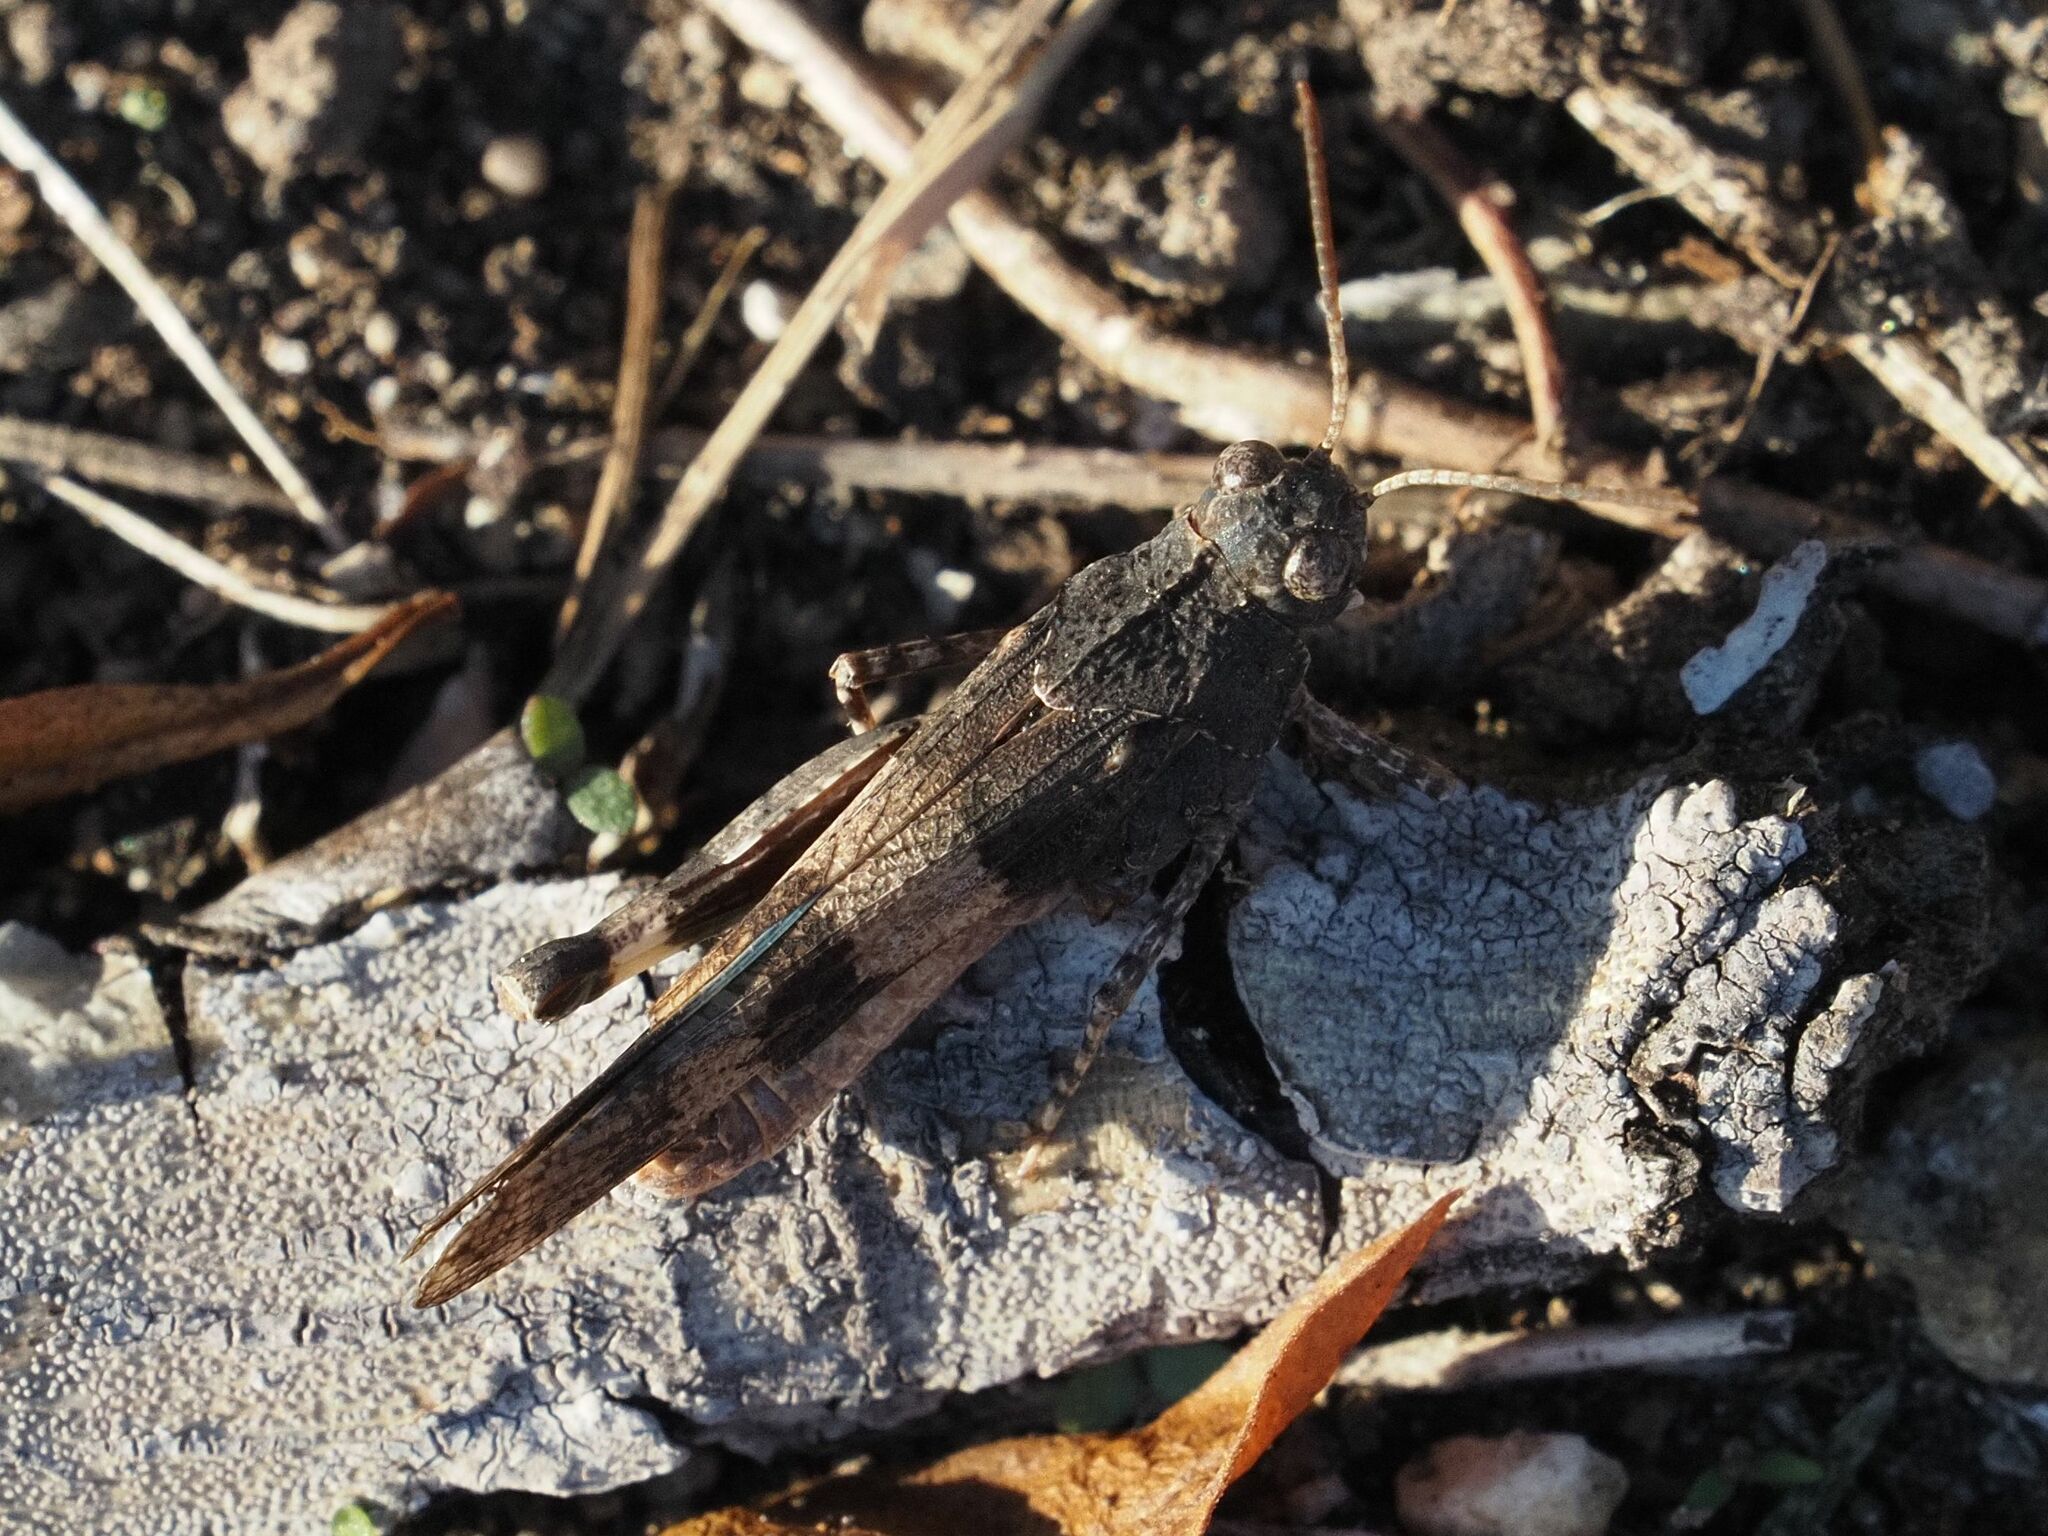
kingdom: Animalia
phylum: Arthropoda
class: Insecta
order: Orthoptera
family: Acrididae
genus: Oedipoda
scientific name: Oedipoda caerulescens
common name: Blue-winged grasshopper
